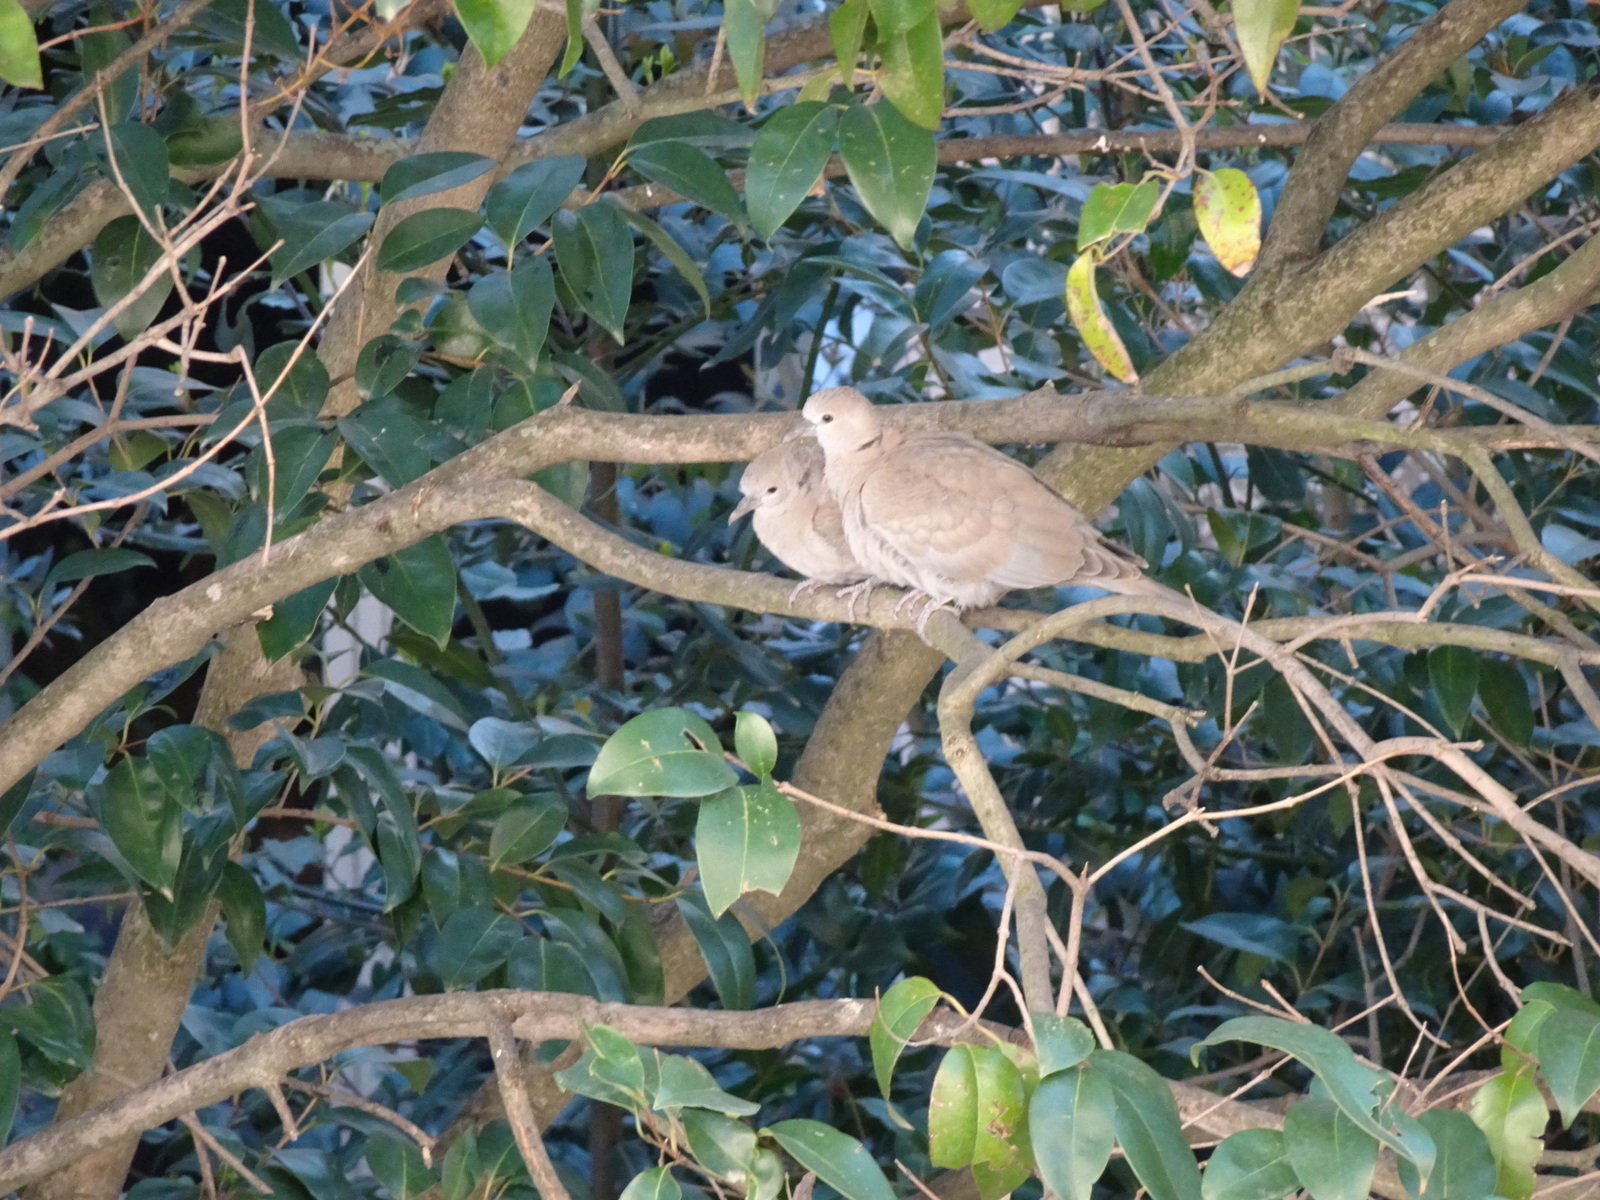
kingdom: Animalia
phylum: Chordata
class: Aves
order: Columbiformes
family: Columbidae
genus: Streptopelia
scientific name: Streptopelia decaocto
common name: Eurasian collared dove
